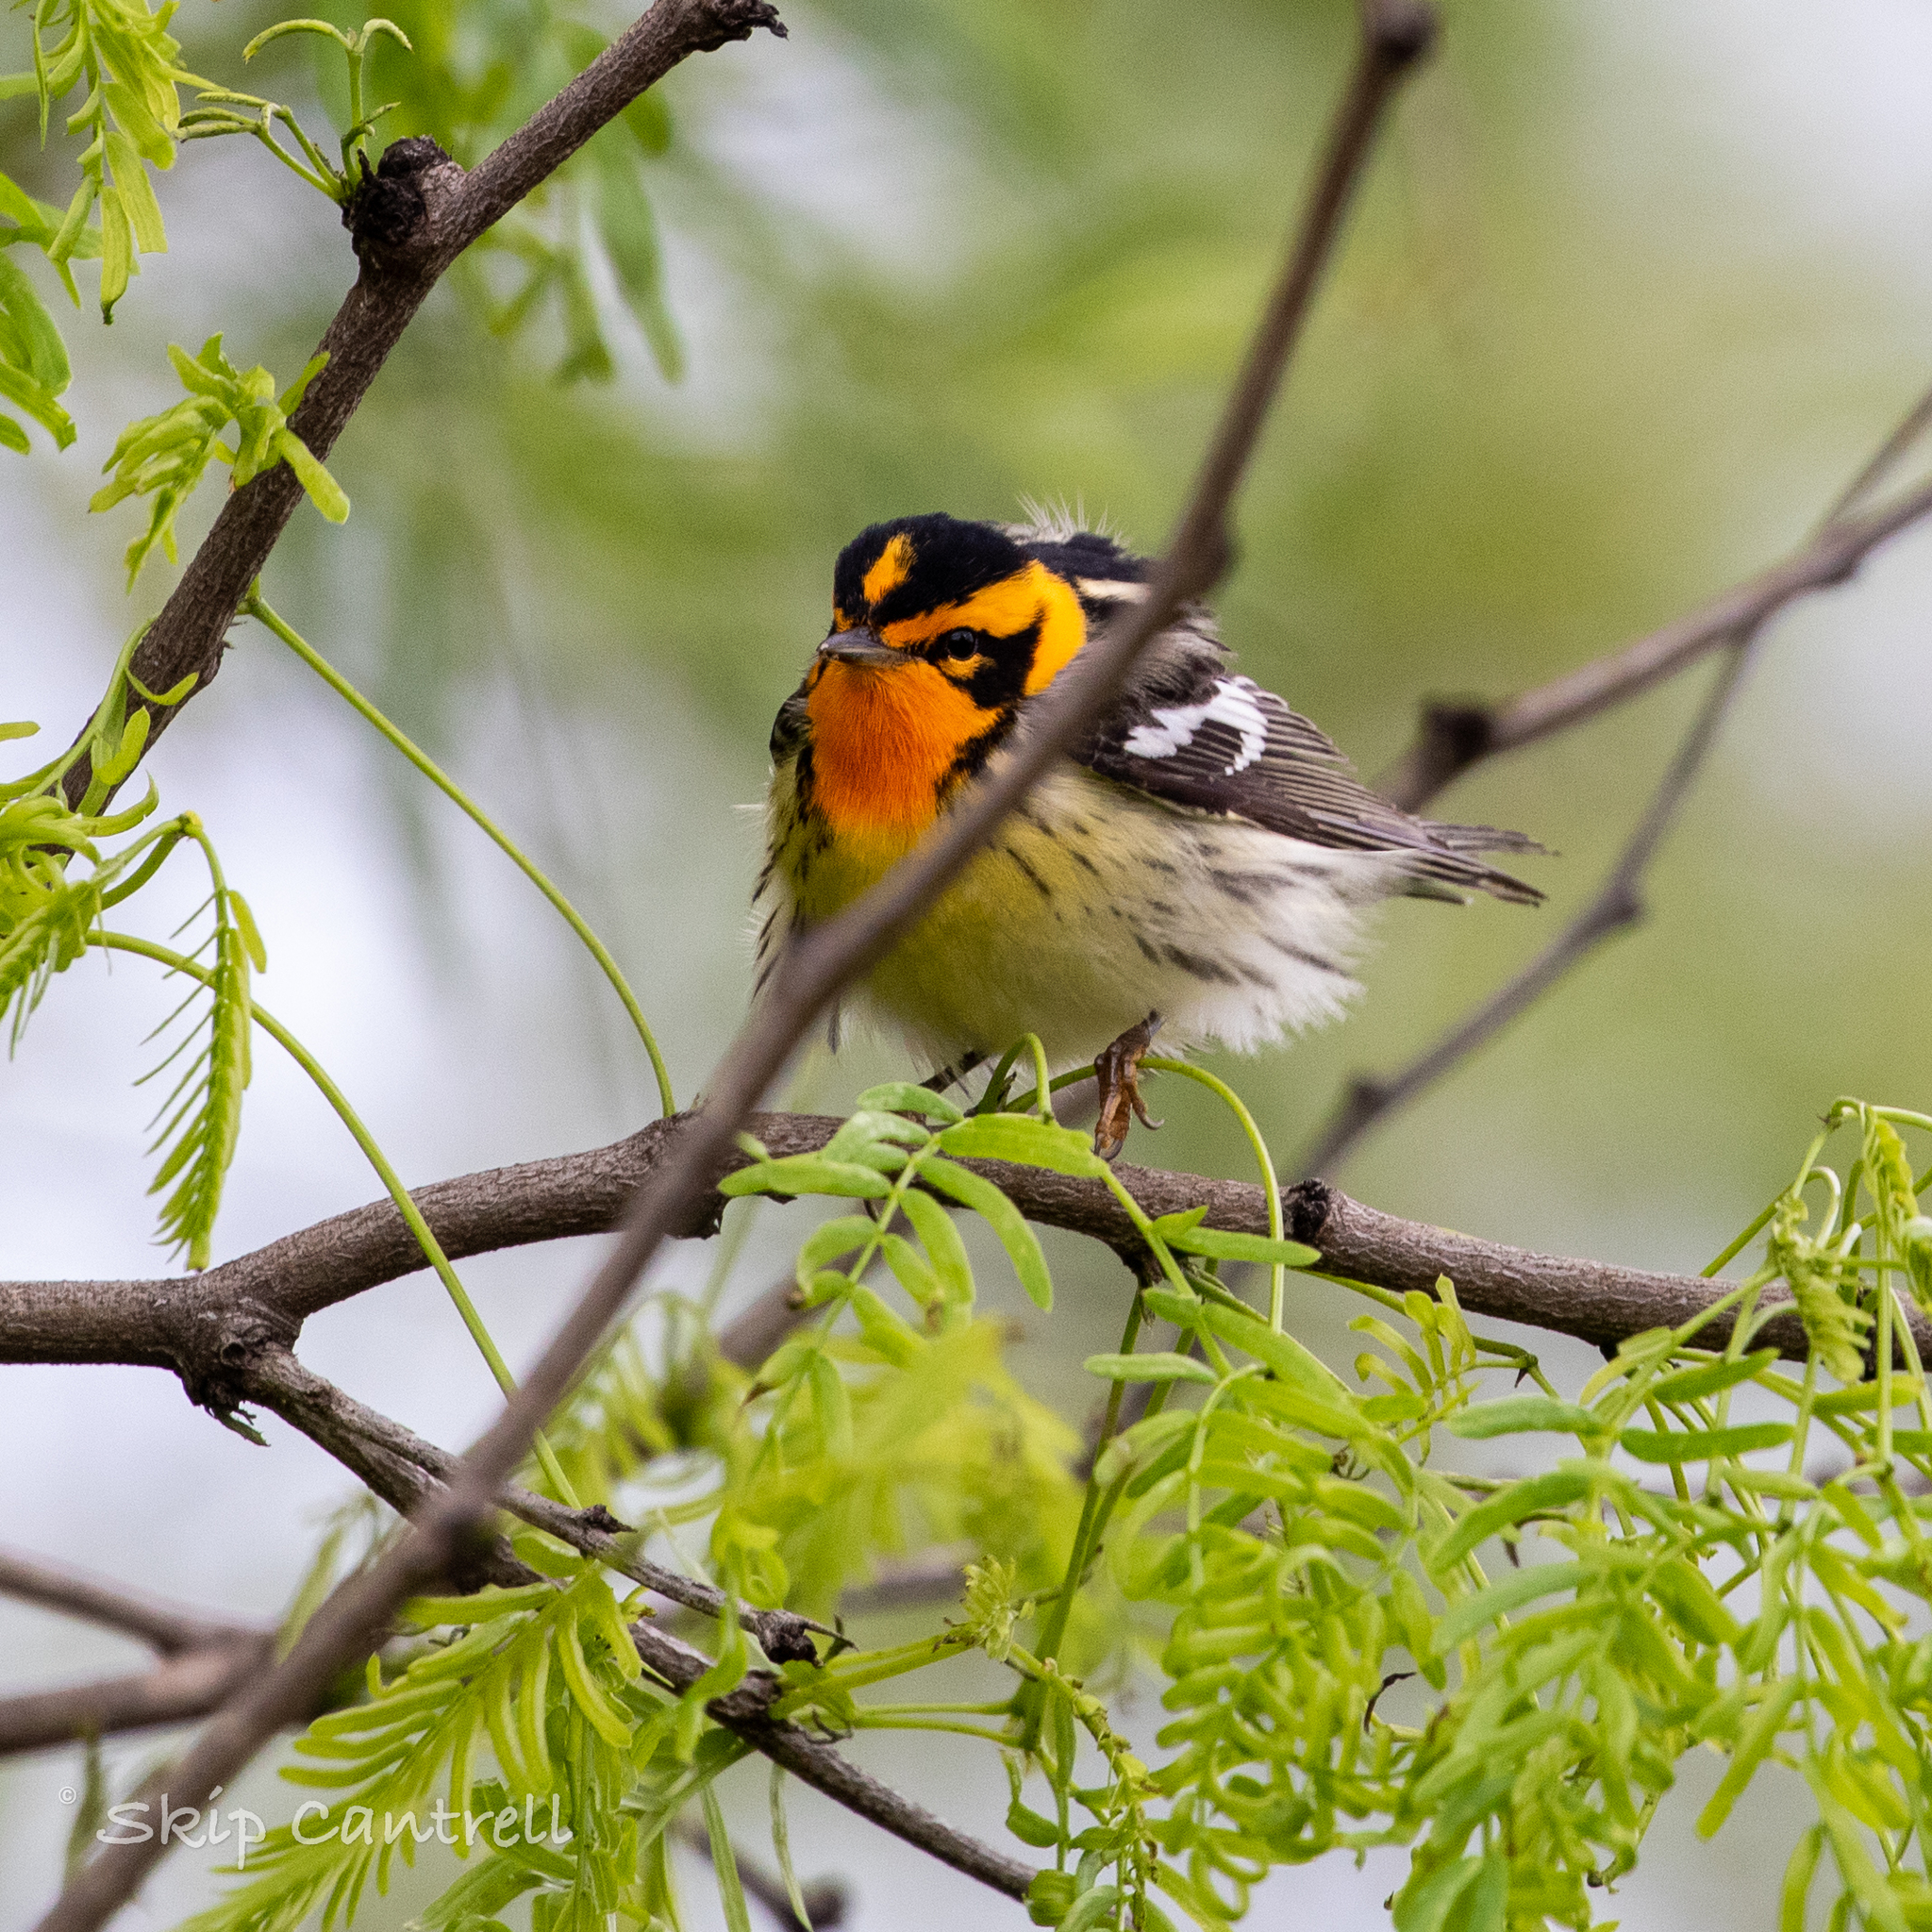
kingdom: Animalia
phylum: Chordata
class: Aves
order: Passeriformes
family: Parulidae
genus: Setophaga
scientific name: Setophaga fusca
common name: Blackburnian warbler
